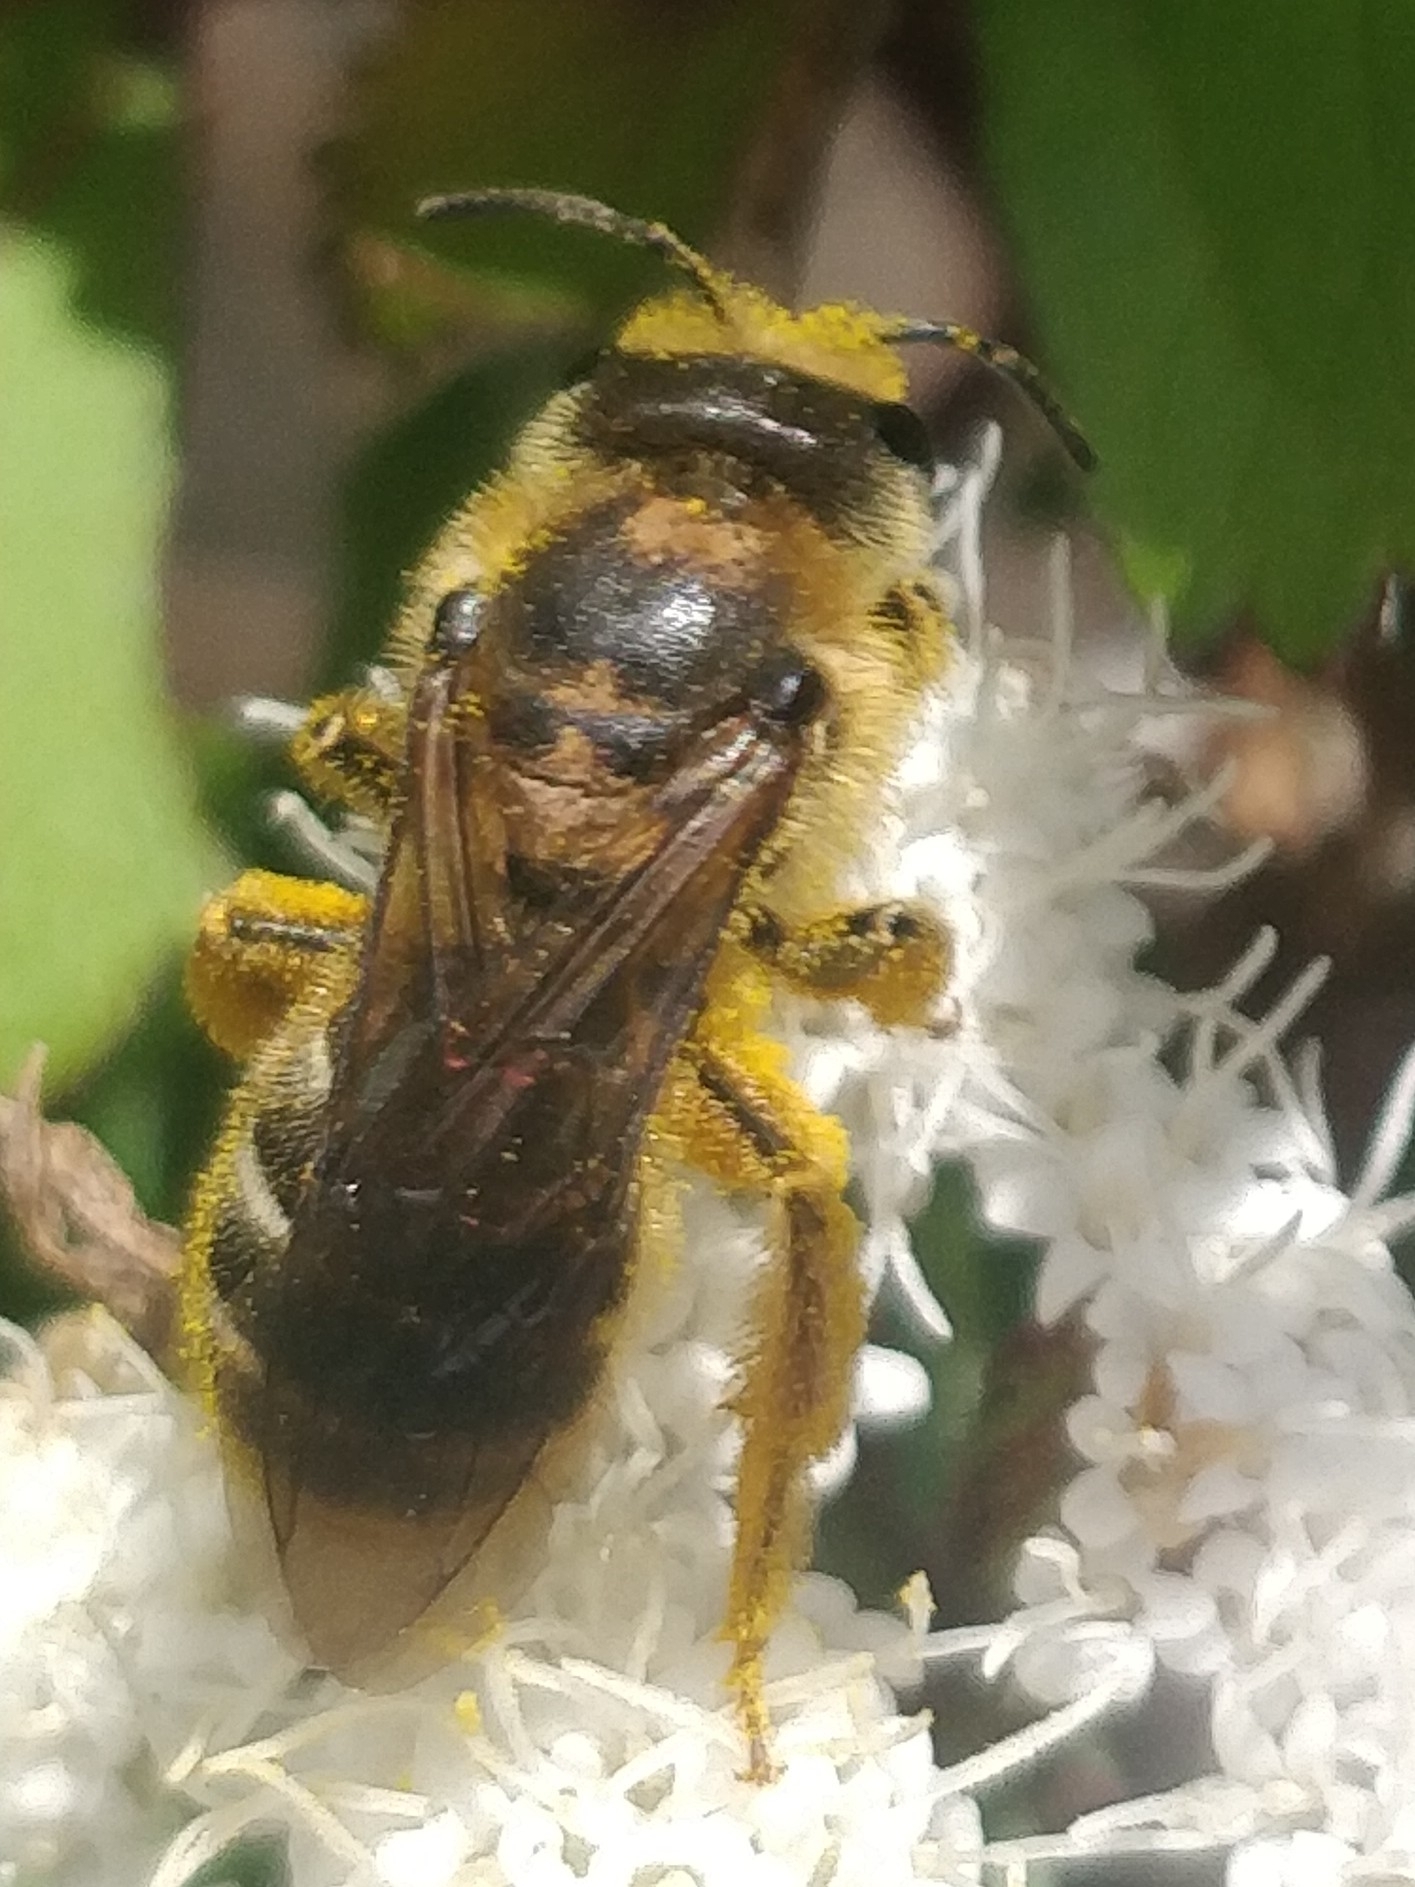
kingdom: Animalia
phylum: Arthropoda
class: Insecta
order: Hymenoptera
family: Halictidae
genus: Halictus
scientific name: Halictus frontalis
